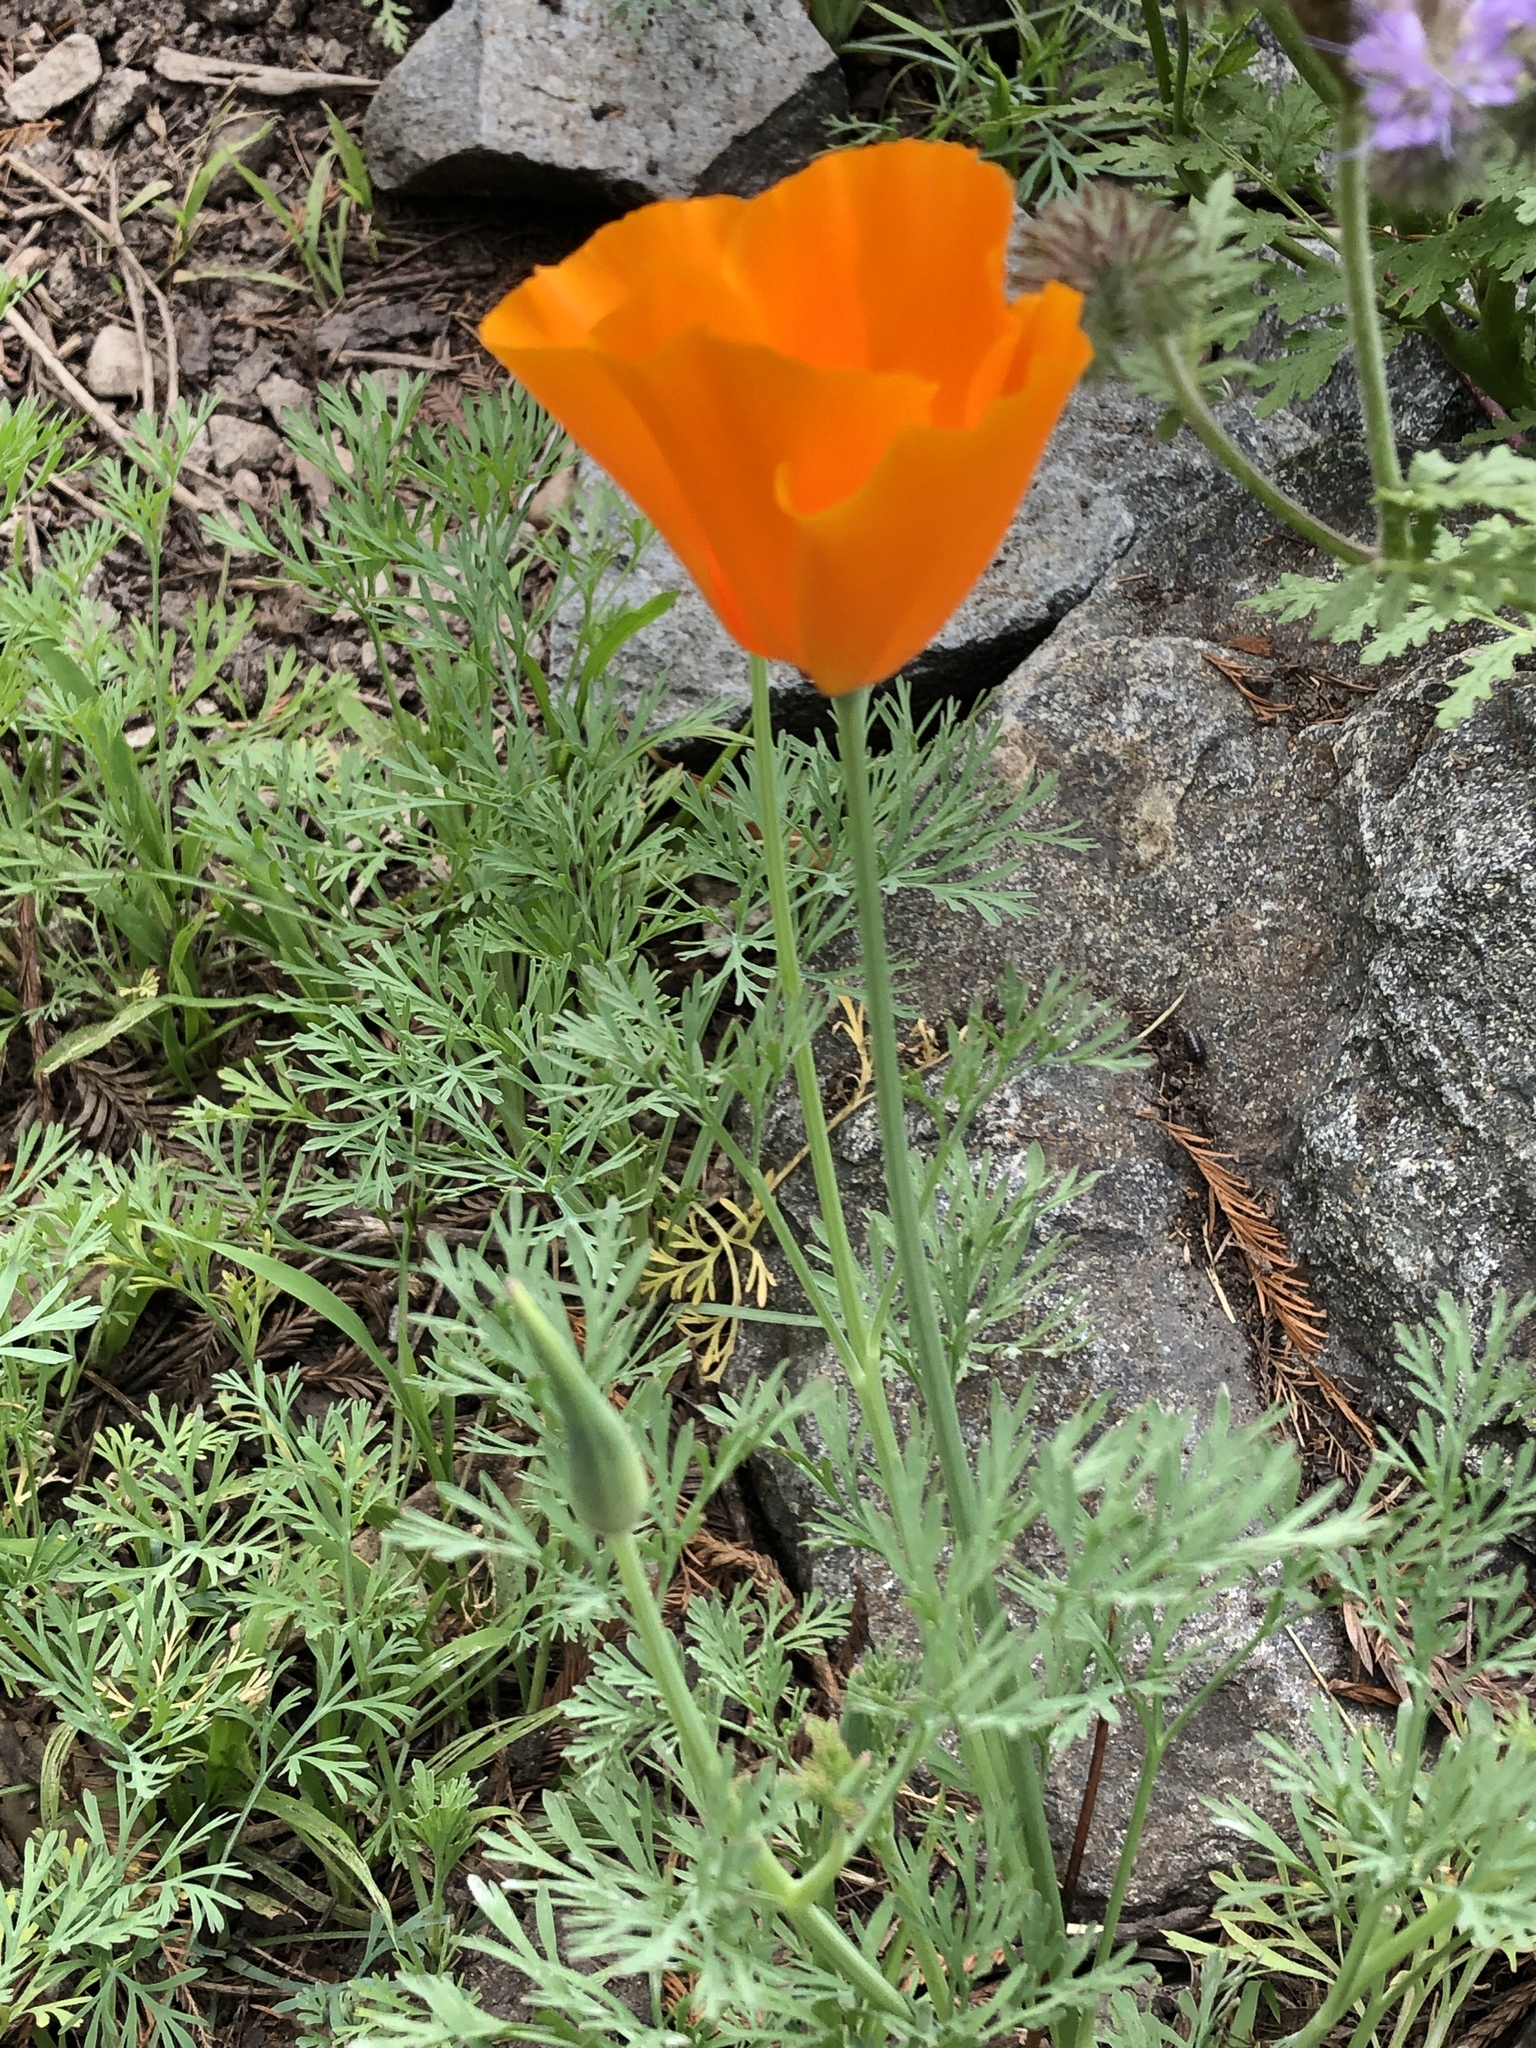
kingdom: Plantae
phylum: Tracheophyta
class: Magnoliopsida
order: Ranunculales
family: Papaveraceae
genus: Eschscholzia
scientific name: Eschscholzia californica
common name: California poppy
